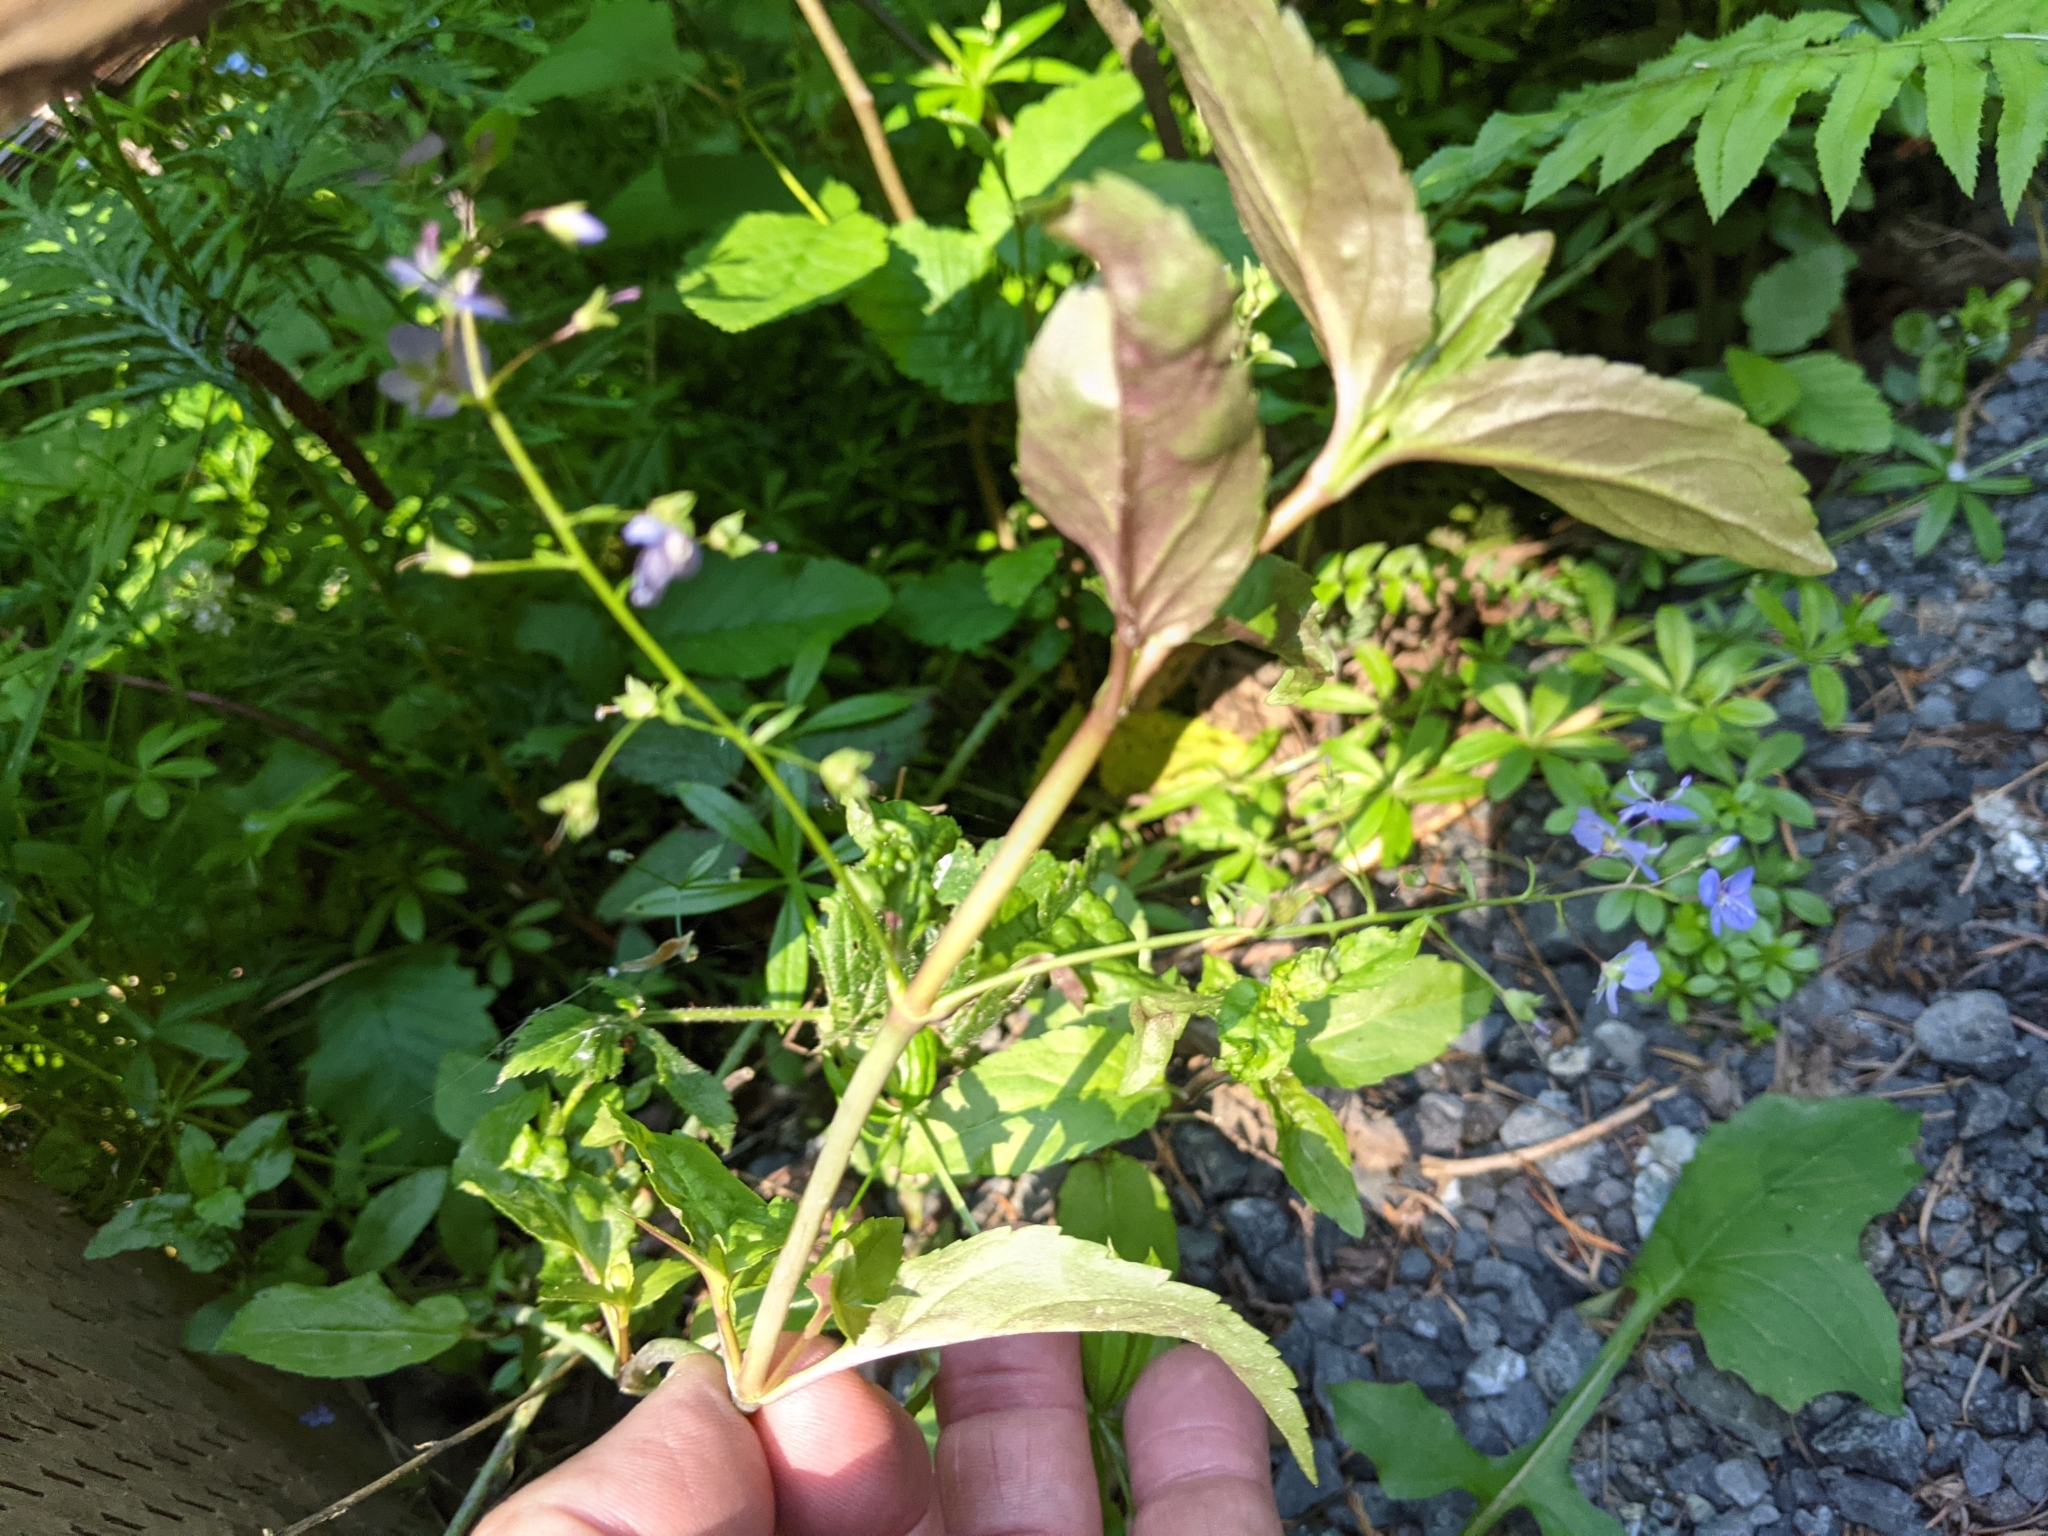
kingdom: Plantae
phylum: Tracheophyta
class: Magnoliopsida
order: Lamiales
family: Plantaginaceae
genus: Veronica
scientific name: Veronica americana
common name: American brooklime
